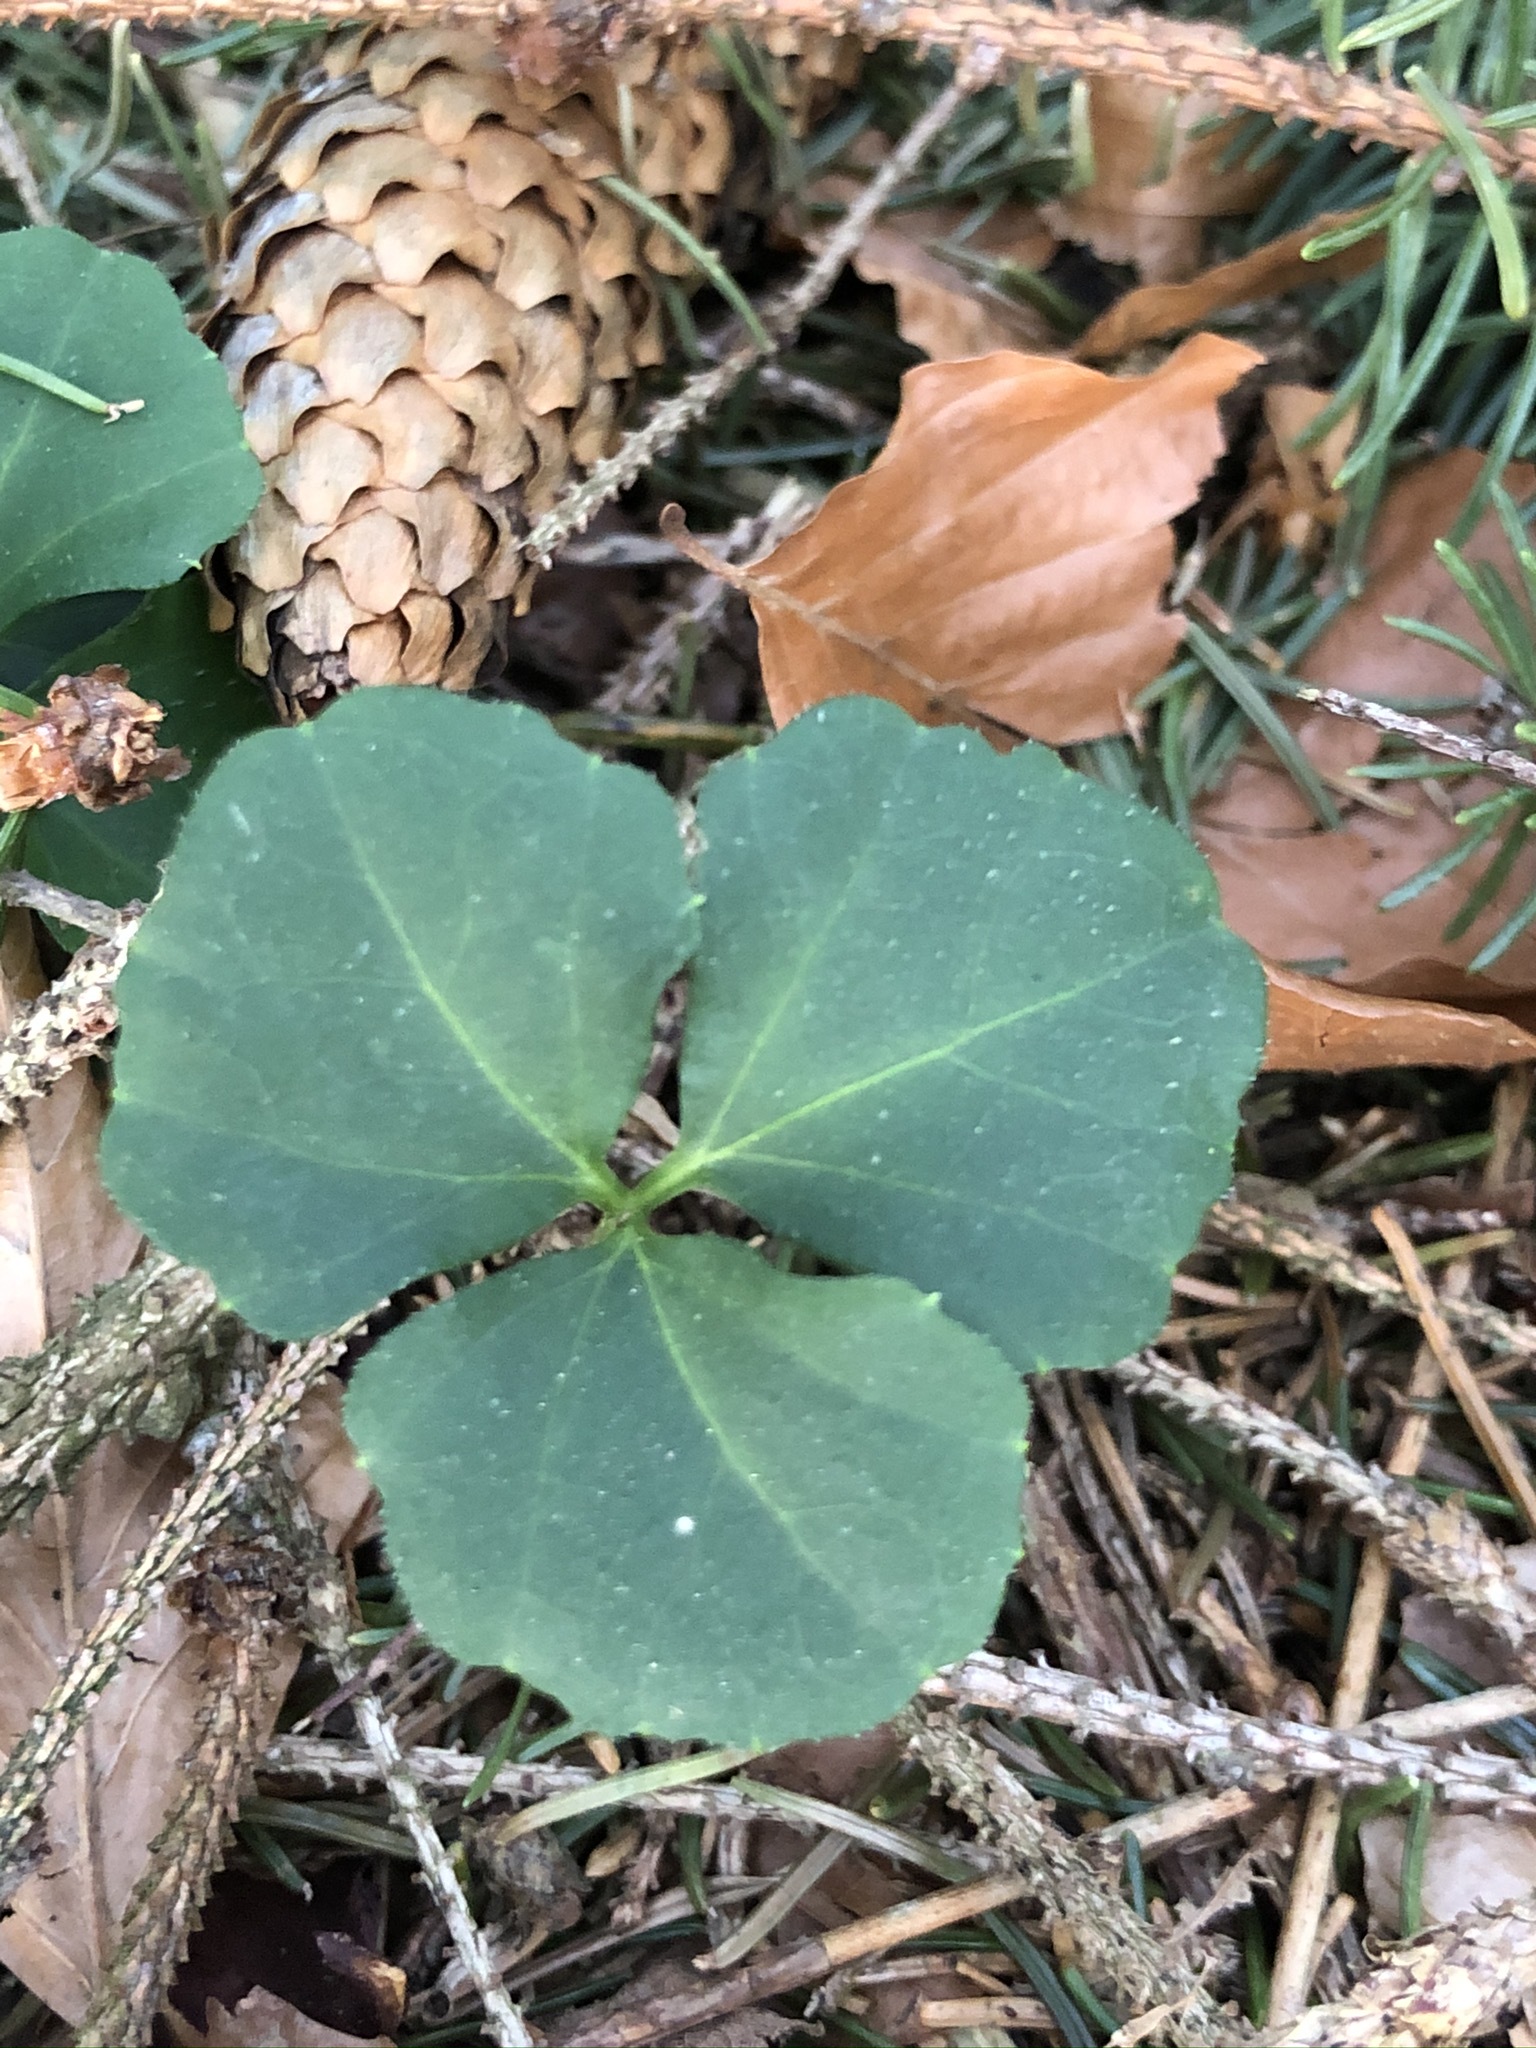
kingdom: Plantae
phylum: Tracheophyta
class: Magnoliopsida
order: Brassicales
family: Brassicaceae
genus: Cardamine
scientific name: Cardamine trifolia
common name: Trefoil cress
